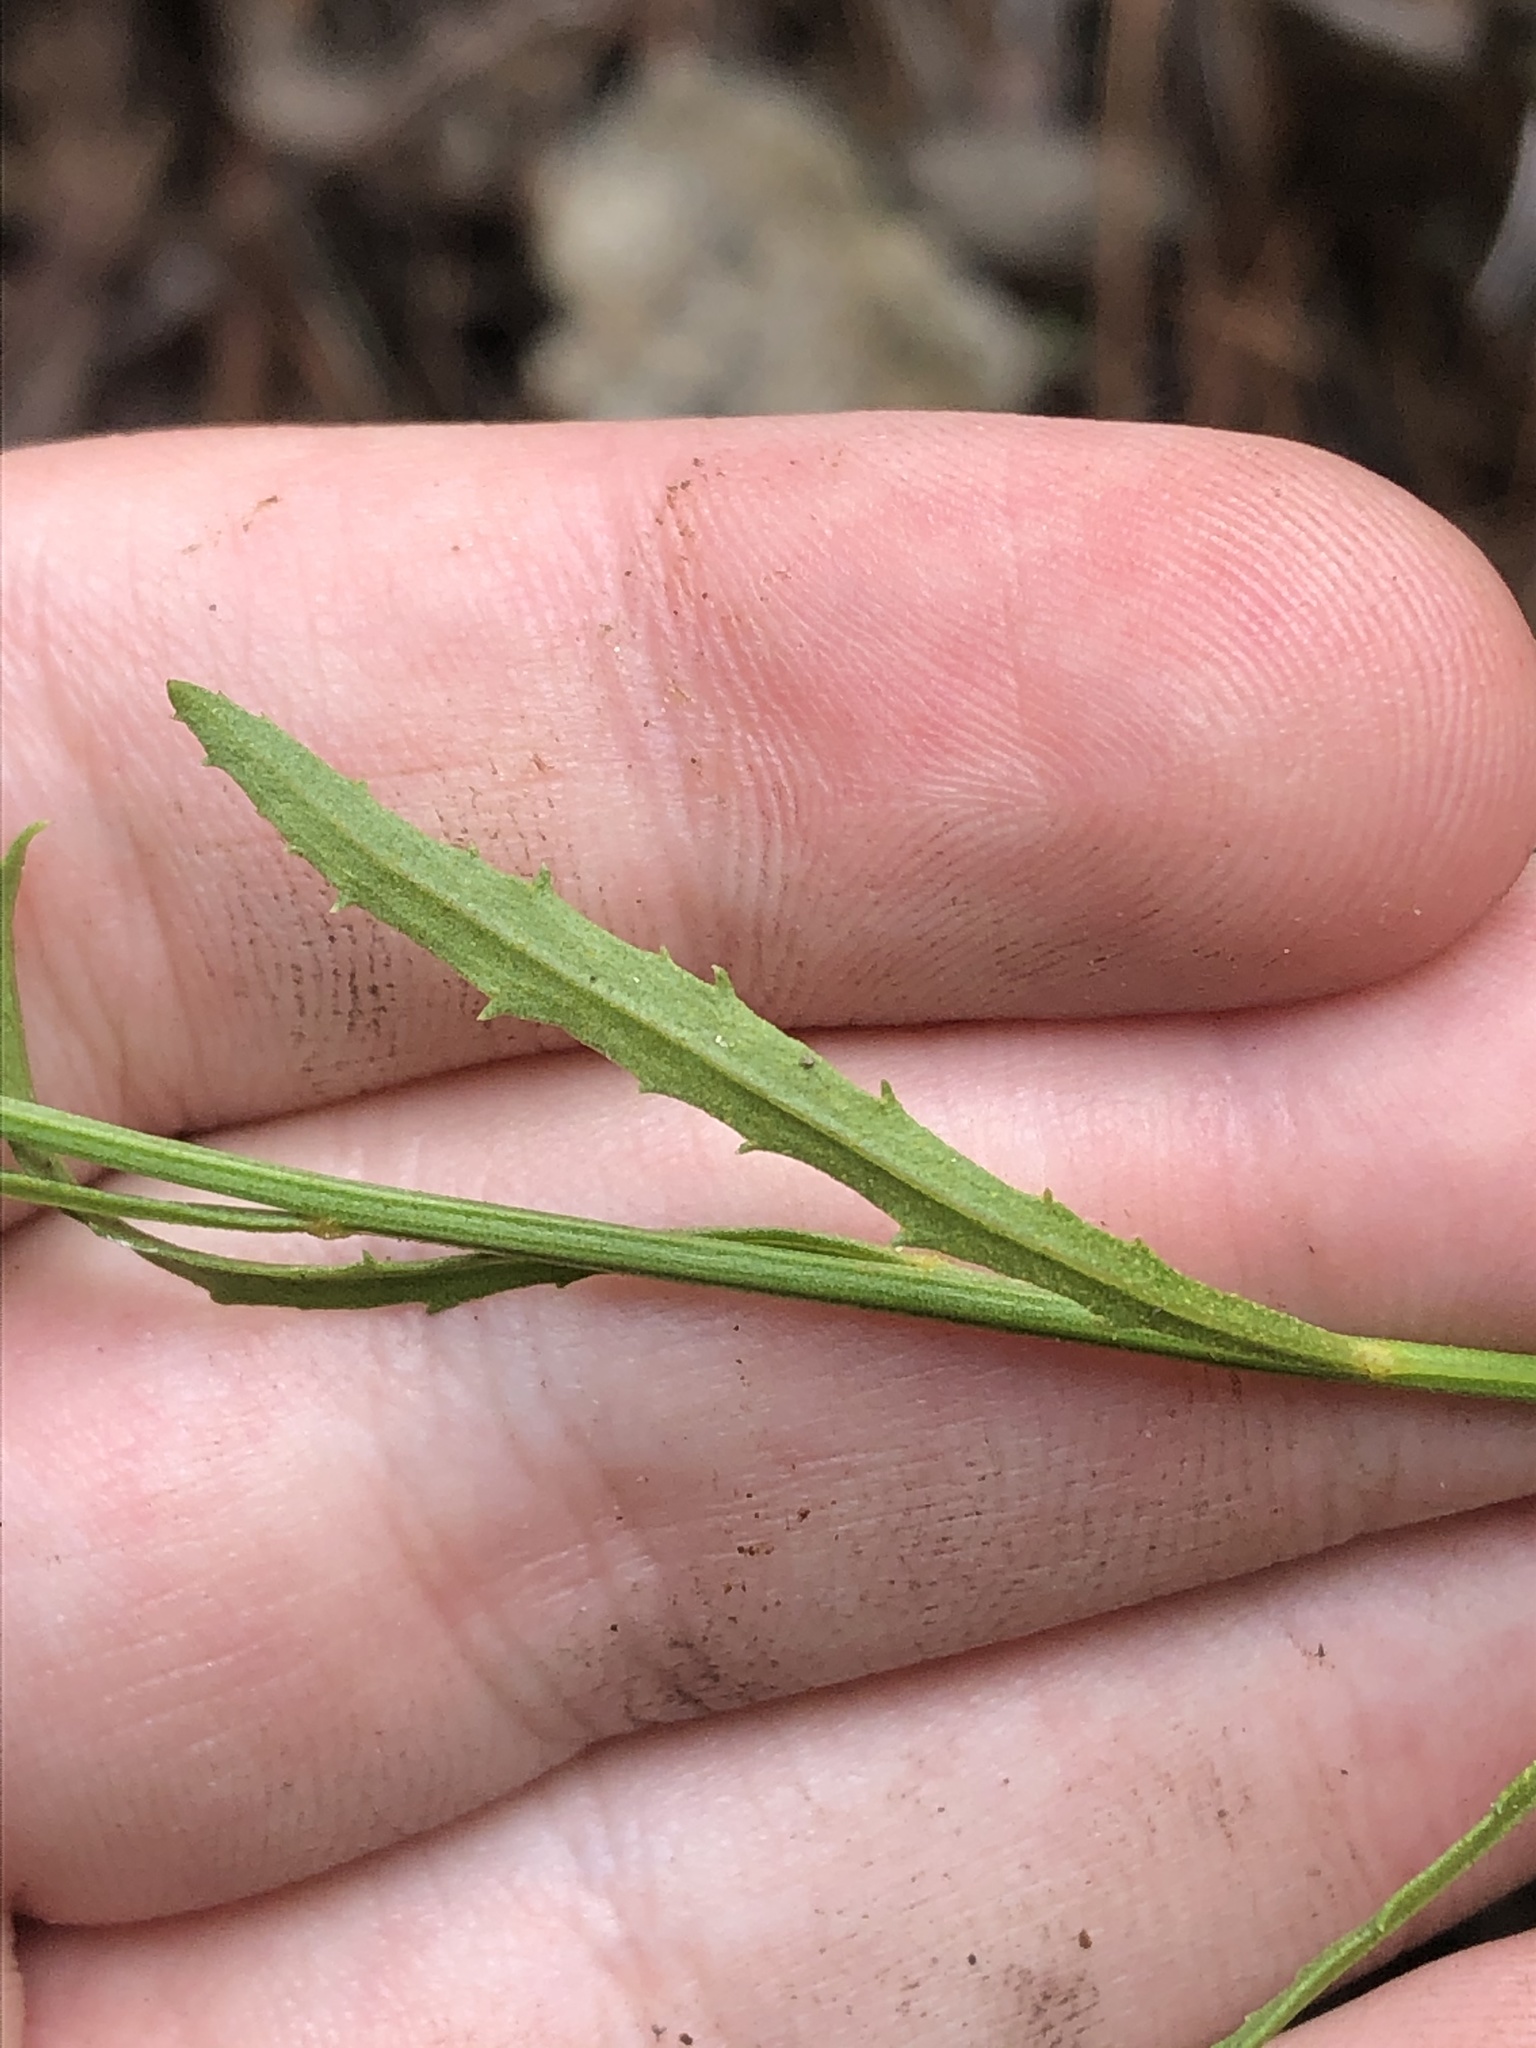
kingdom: Plantae
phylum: Tracheophyta
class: Magnoliopsida
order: Asterales
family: Asteraceae
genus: Baccharis
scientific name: Baccharis thesioides
